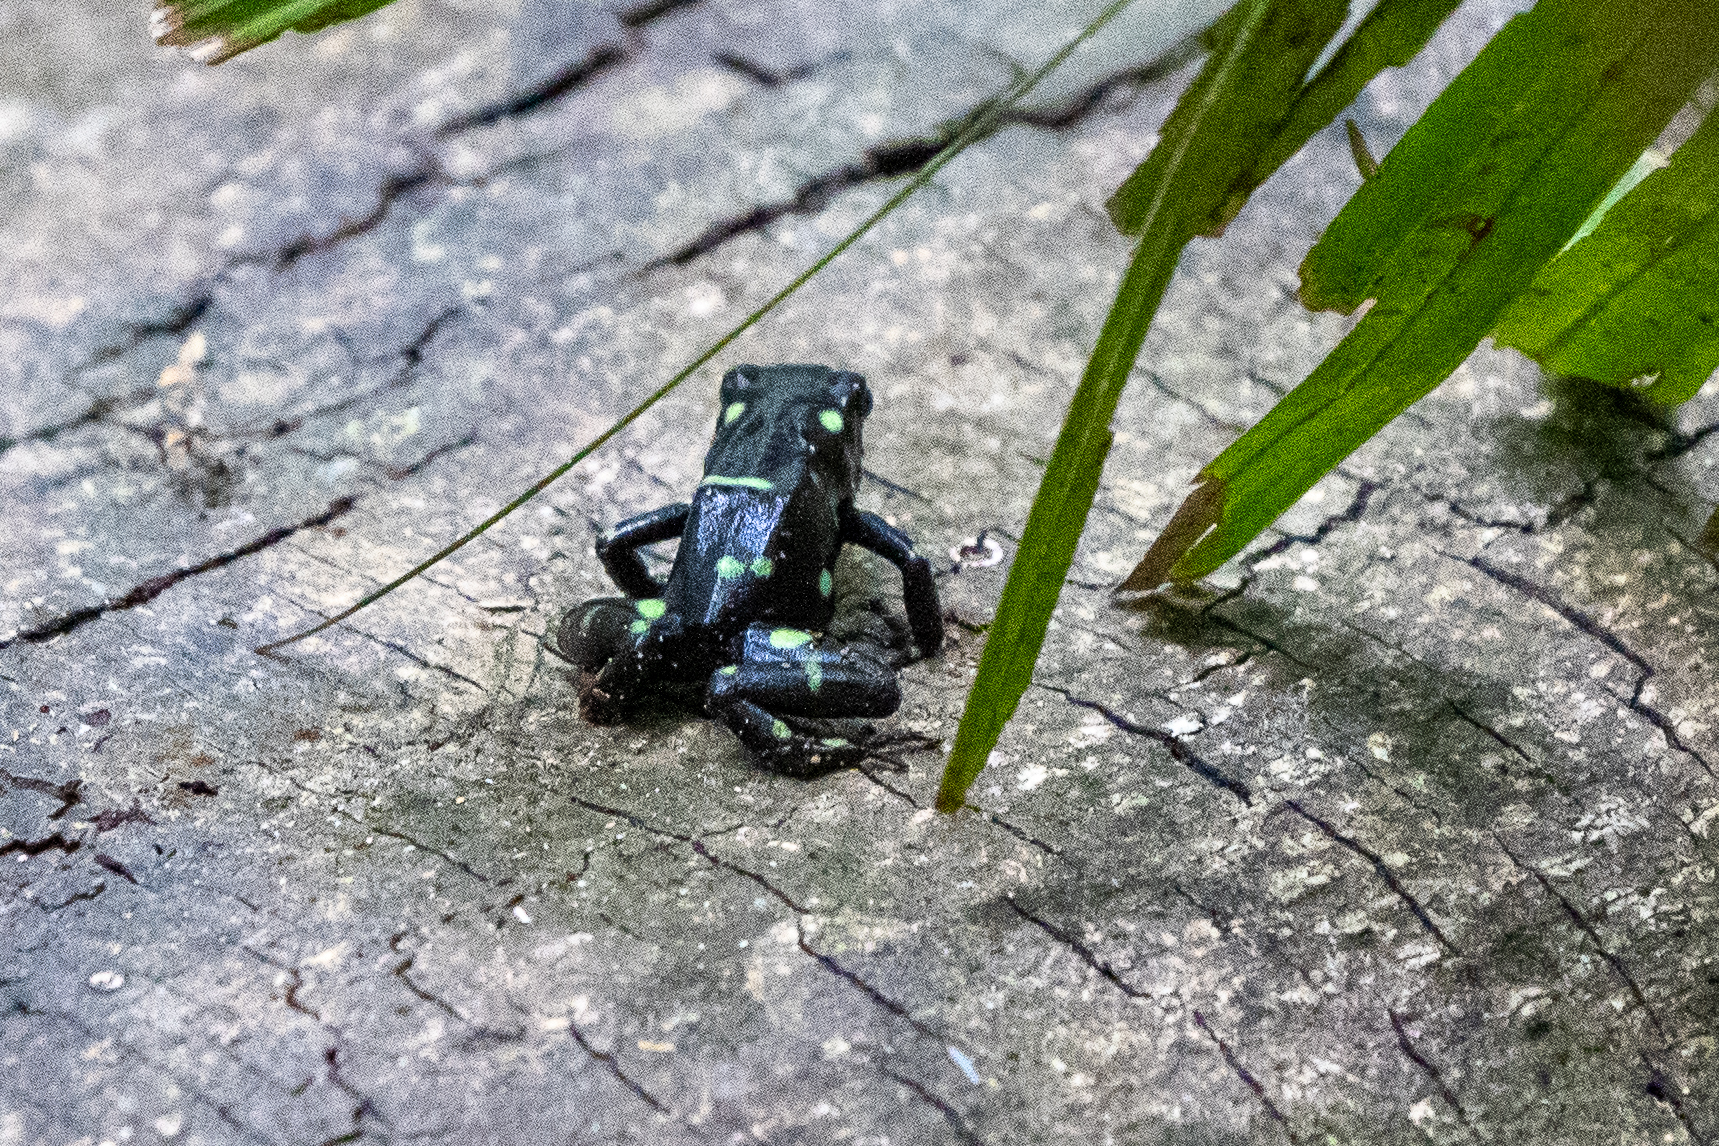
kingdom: Animalia
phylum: Chordata
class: Amphibia
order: Anura
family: Dendrobatidae
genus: Dendrobates
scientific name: Dendrobates auratus
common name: Green and black poison dart frog
